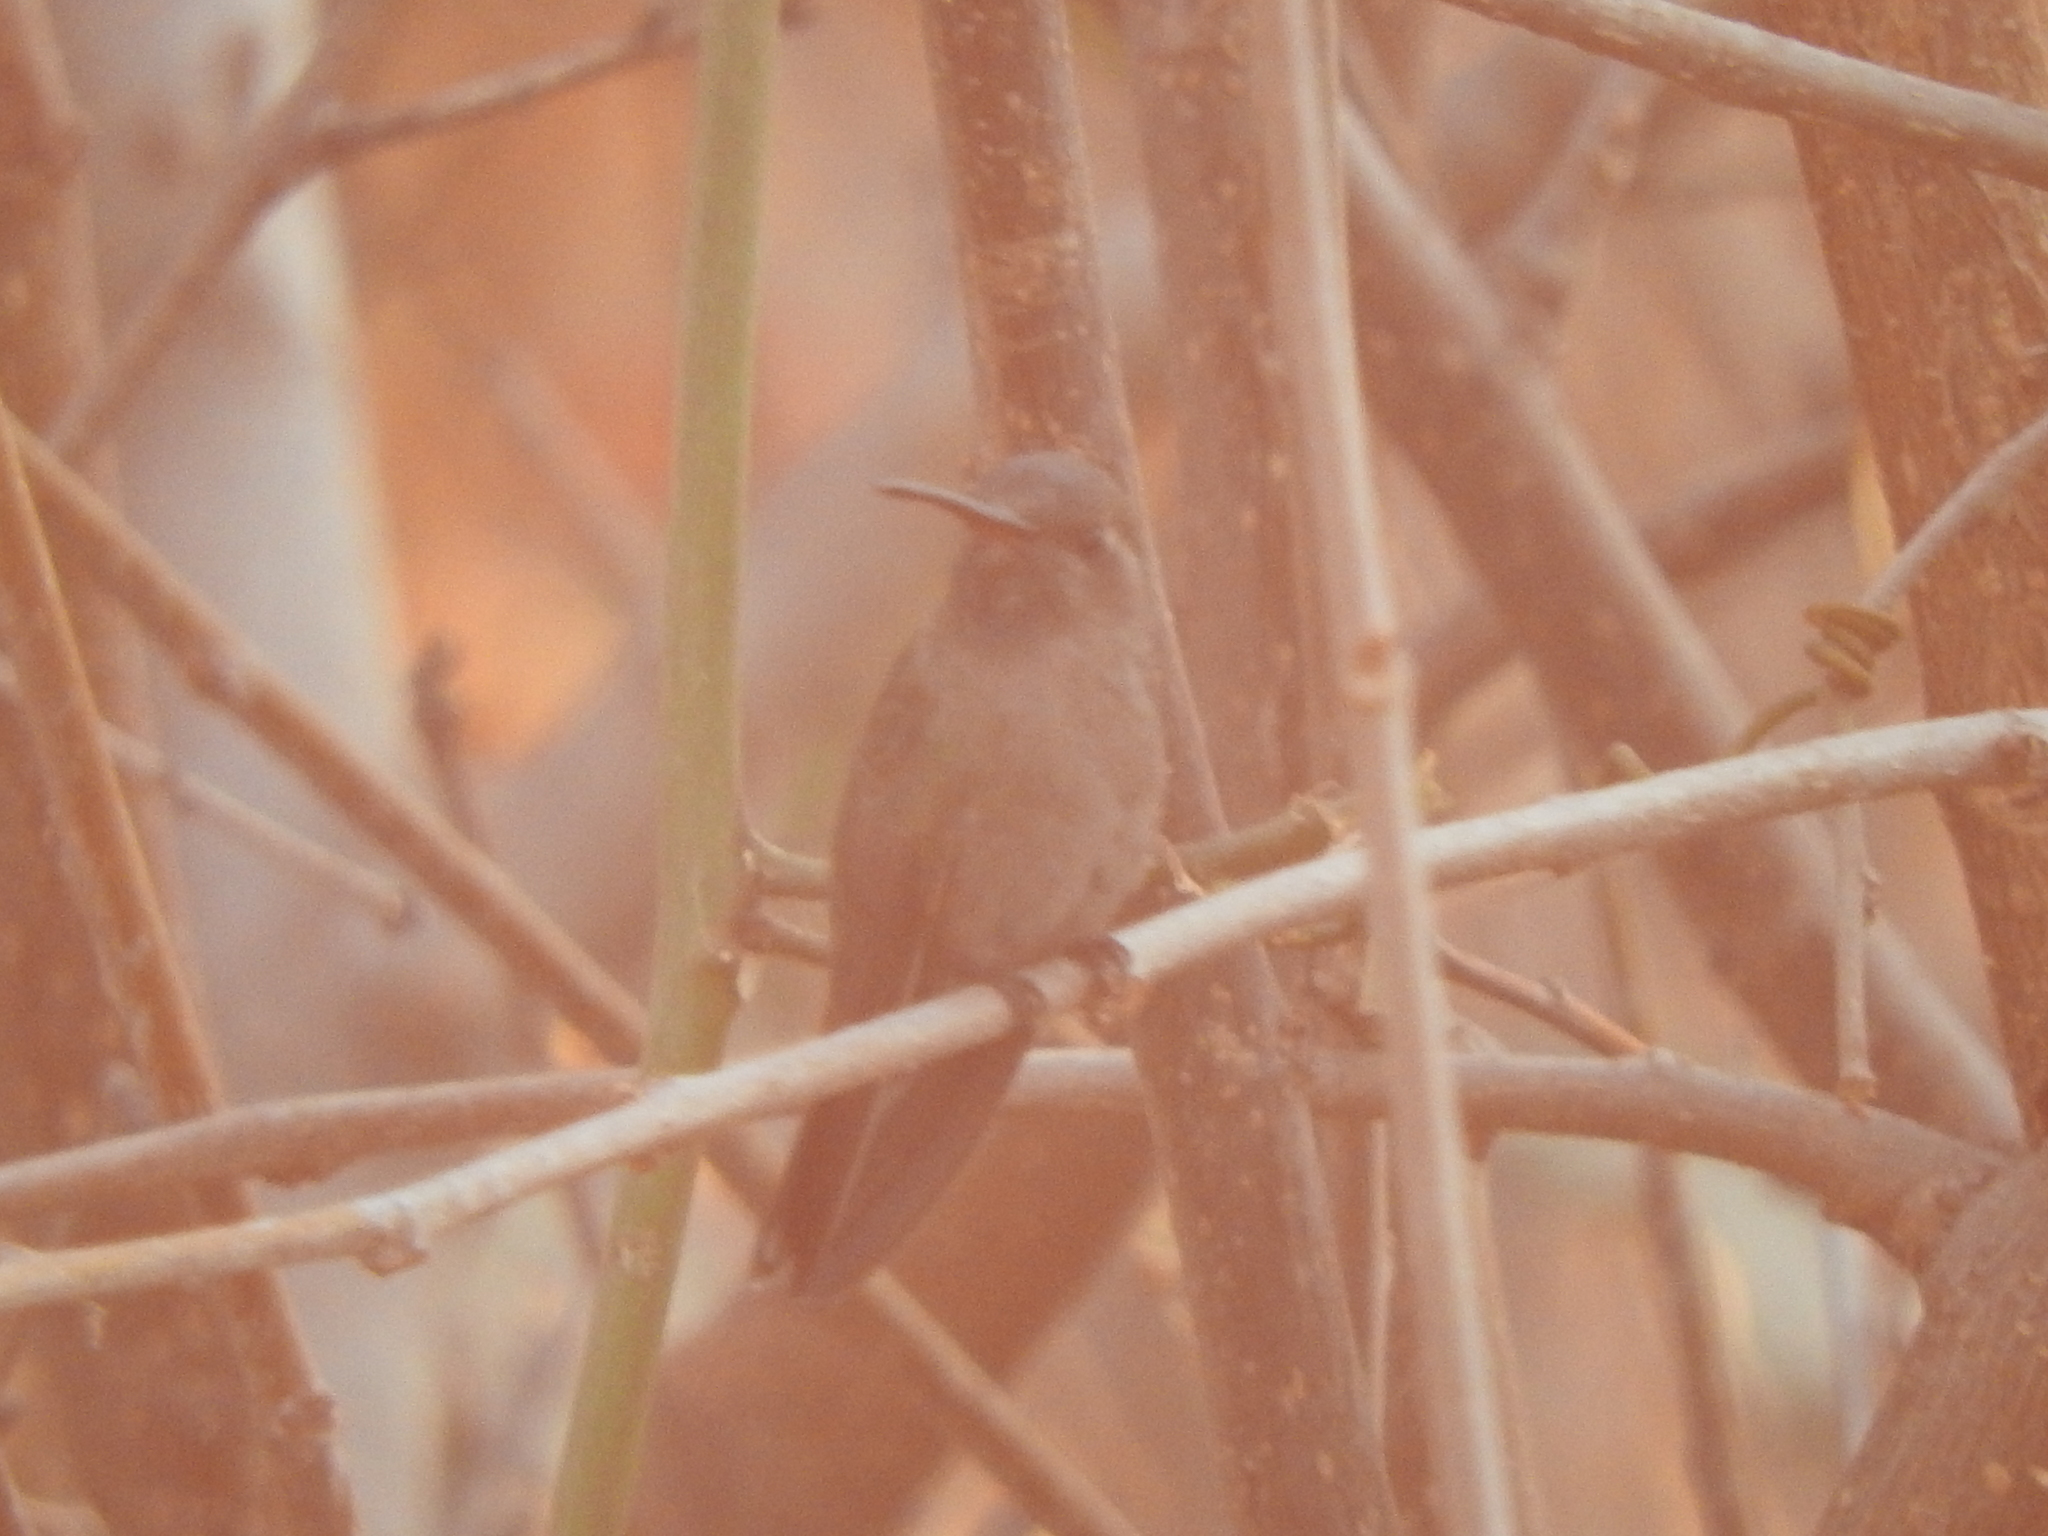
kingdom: Animalia
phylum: Chordata
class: Aves
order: Apodiformes
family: Trochilidae
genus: Cynanthus
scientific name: Cynanthus latirostris
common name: Broad-billed hummingbird
